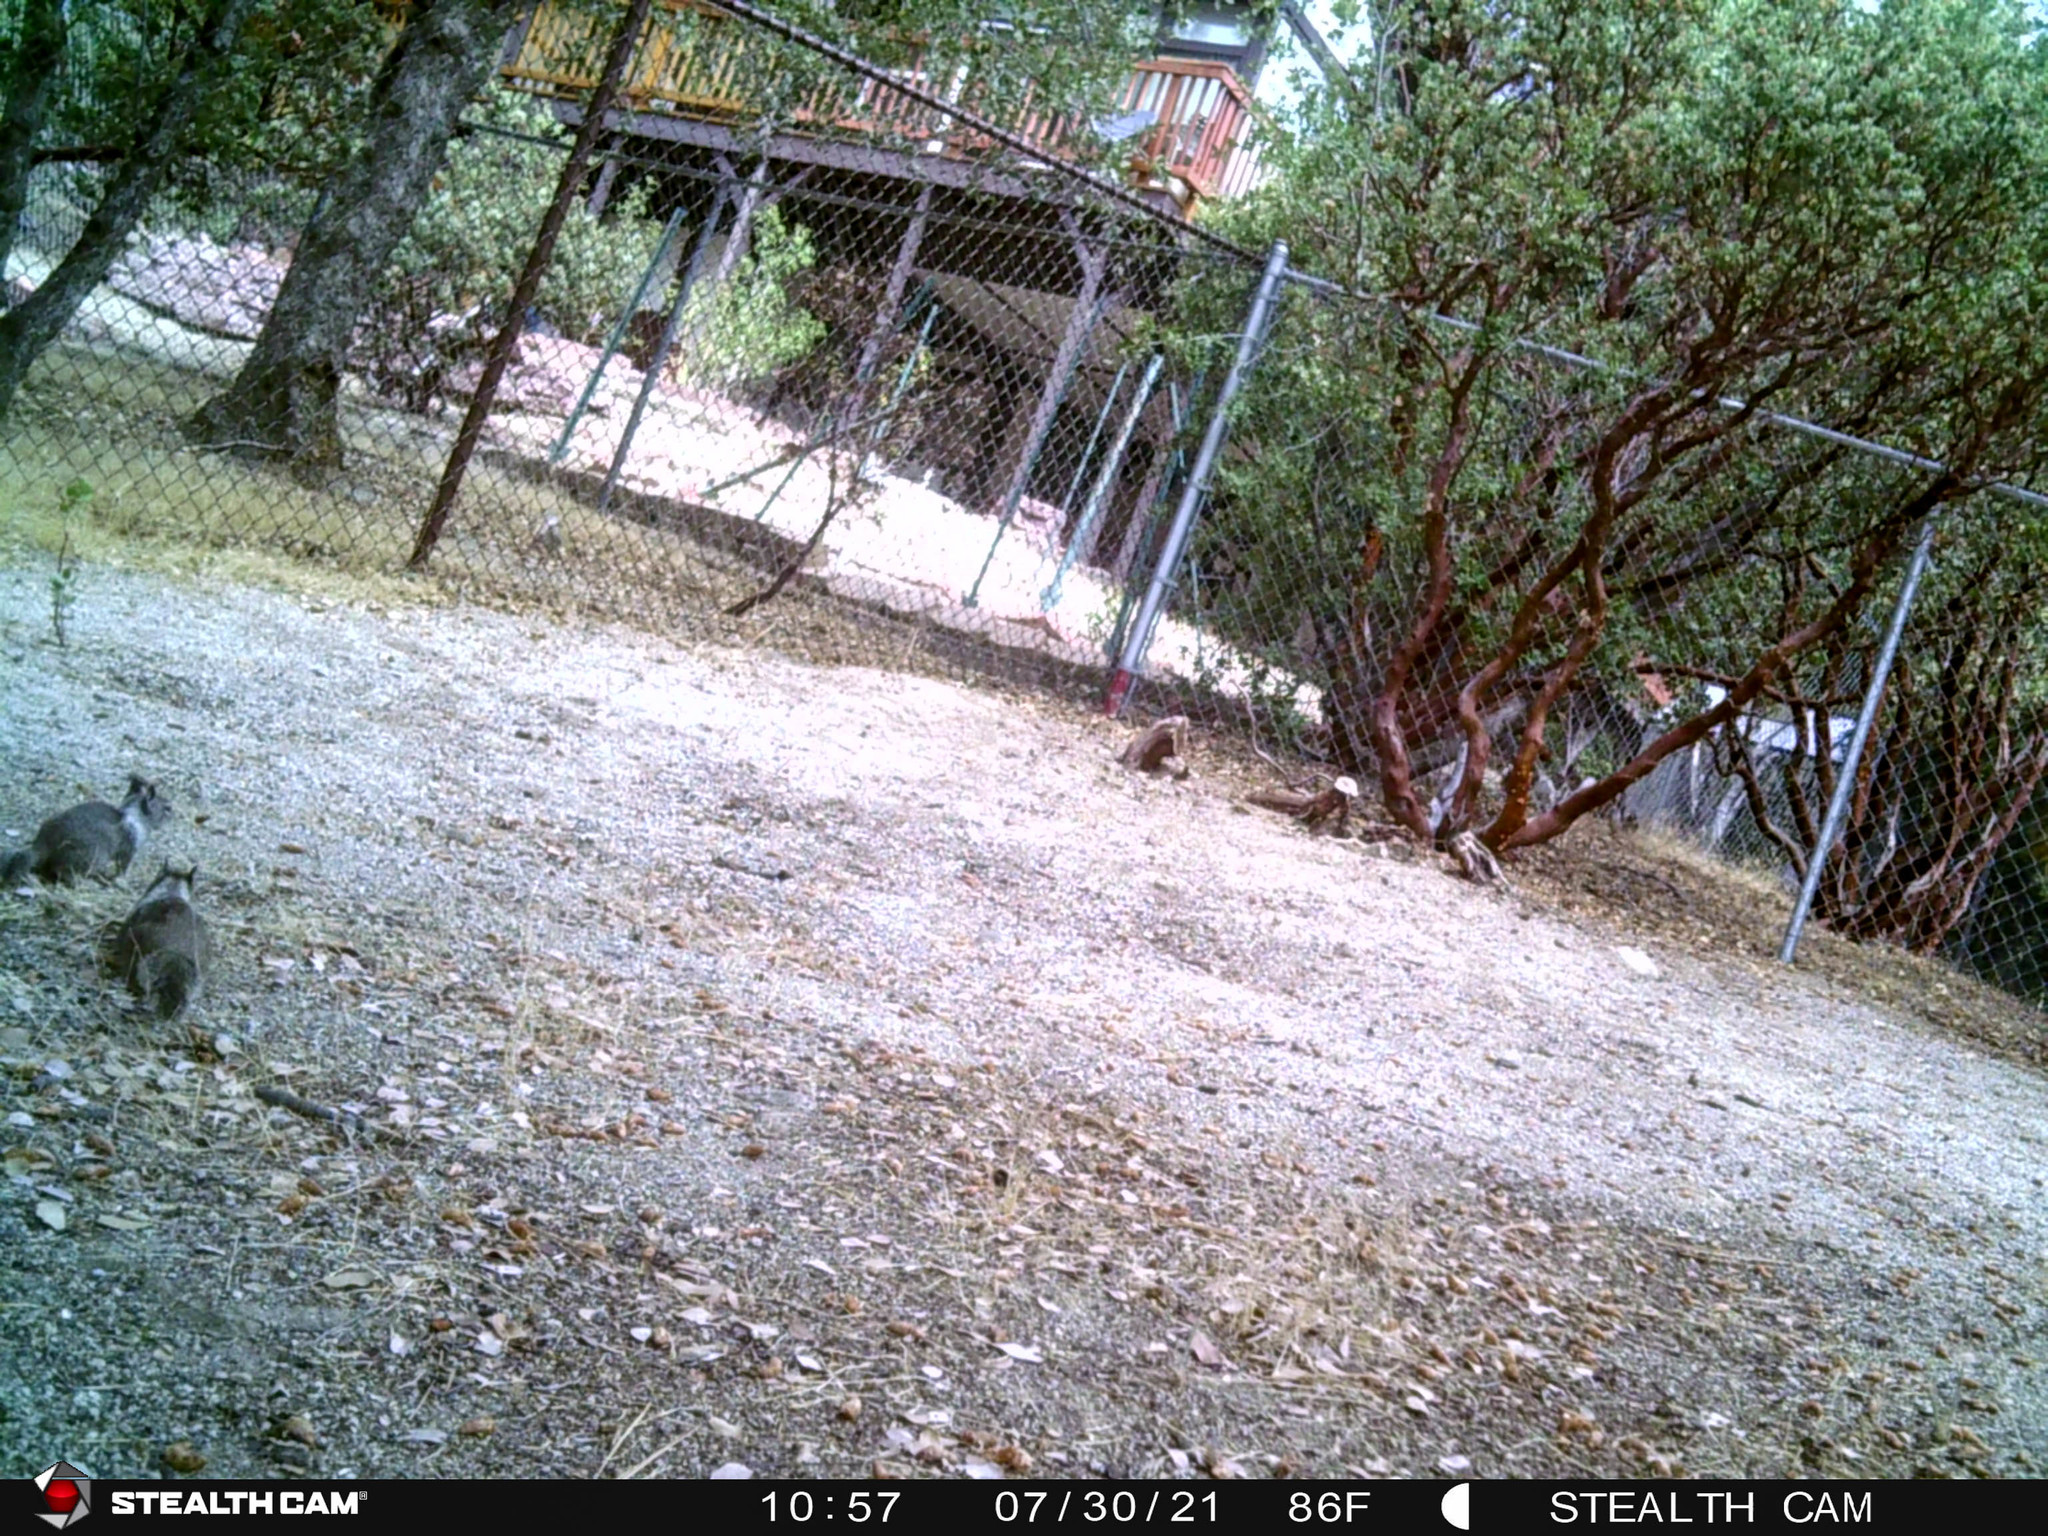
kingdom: Animalia
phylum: Chordata
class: Mammalia
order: Rodentia
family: Sciuridae
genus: Otospermophilus
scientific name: Otospermophilus beecheyi
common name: California ground squirrel
